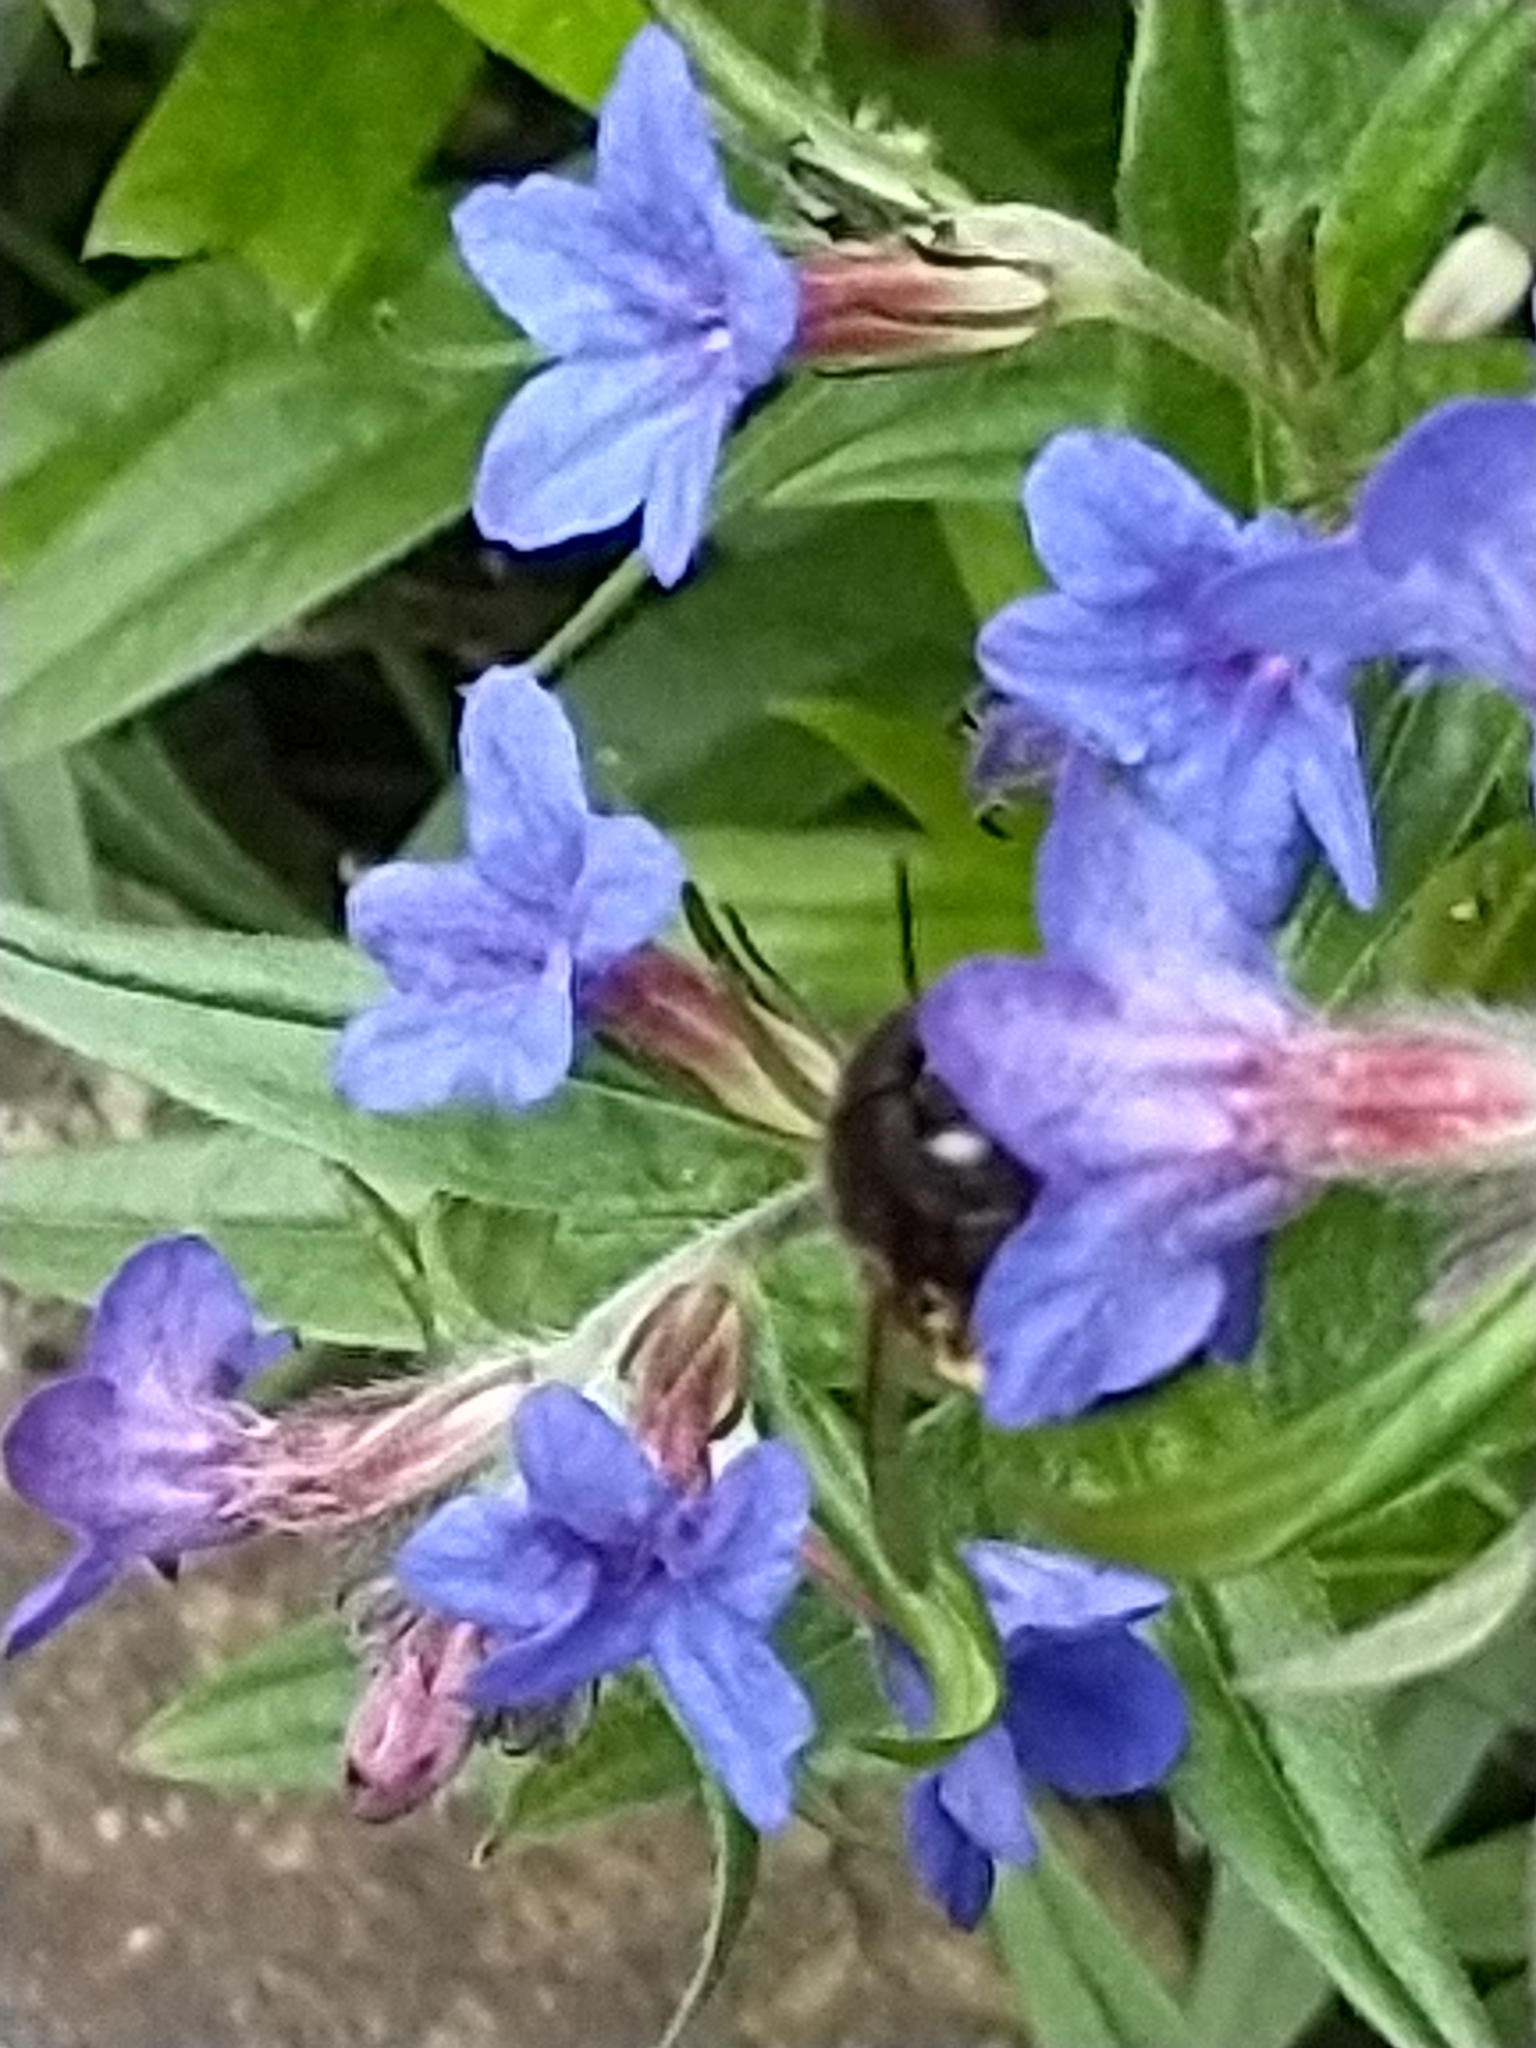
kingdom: Animalia
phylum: Arthropoda
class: Insecta
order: Hymenoptera
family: Apidae
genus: Anthophora
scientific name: Anthophora plumipes
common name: Hairy-footed flower bee
